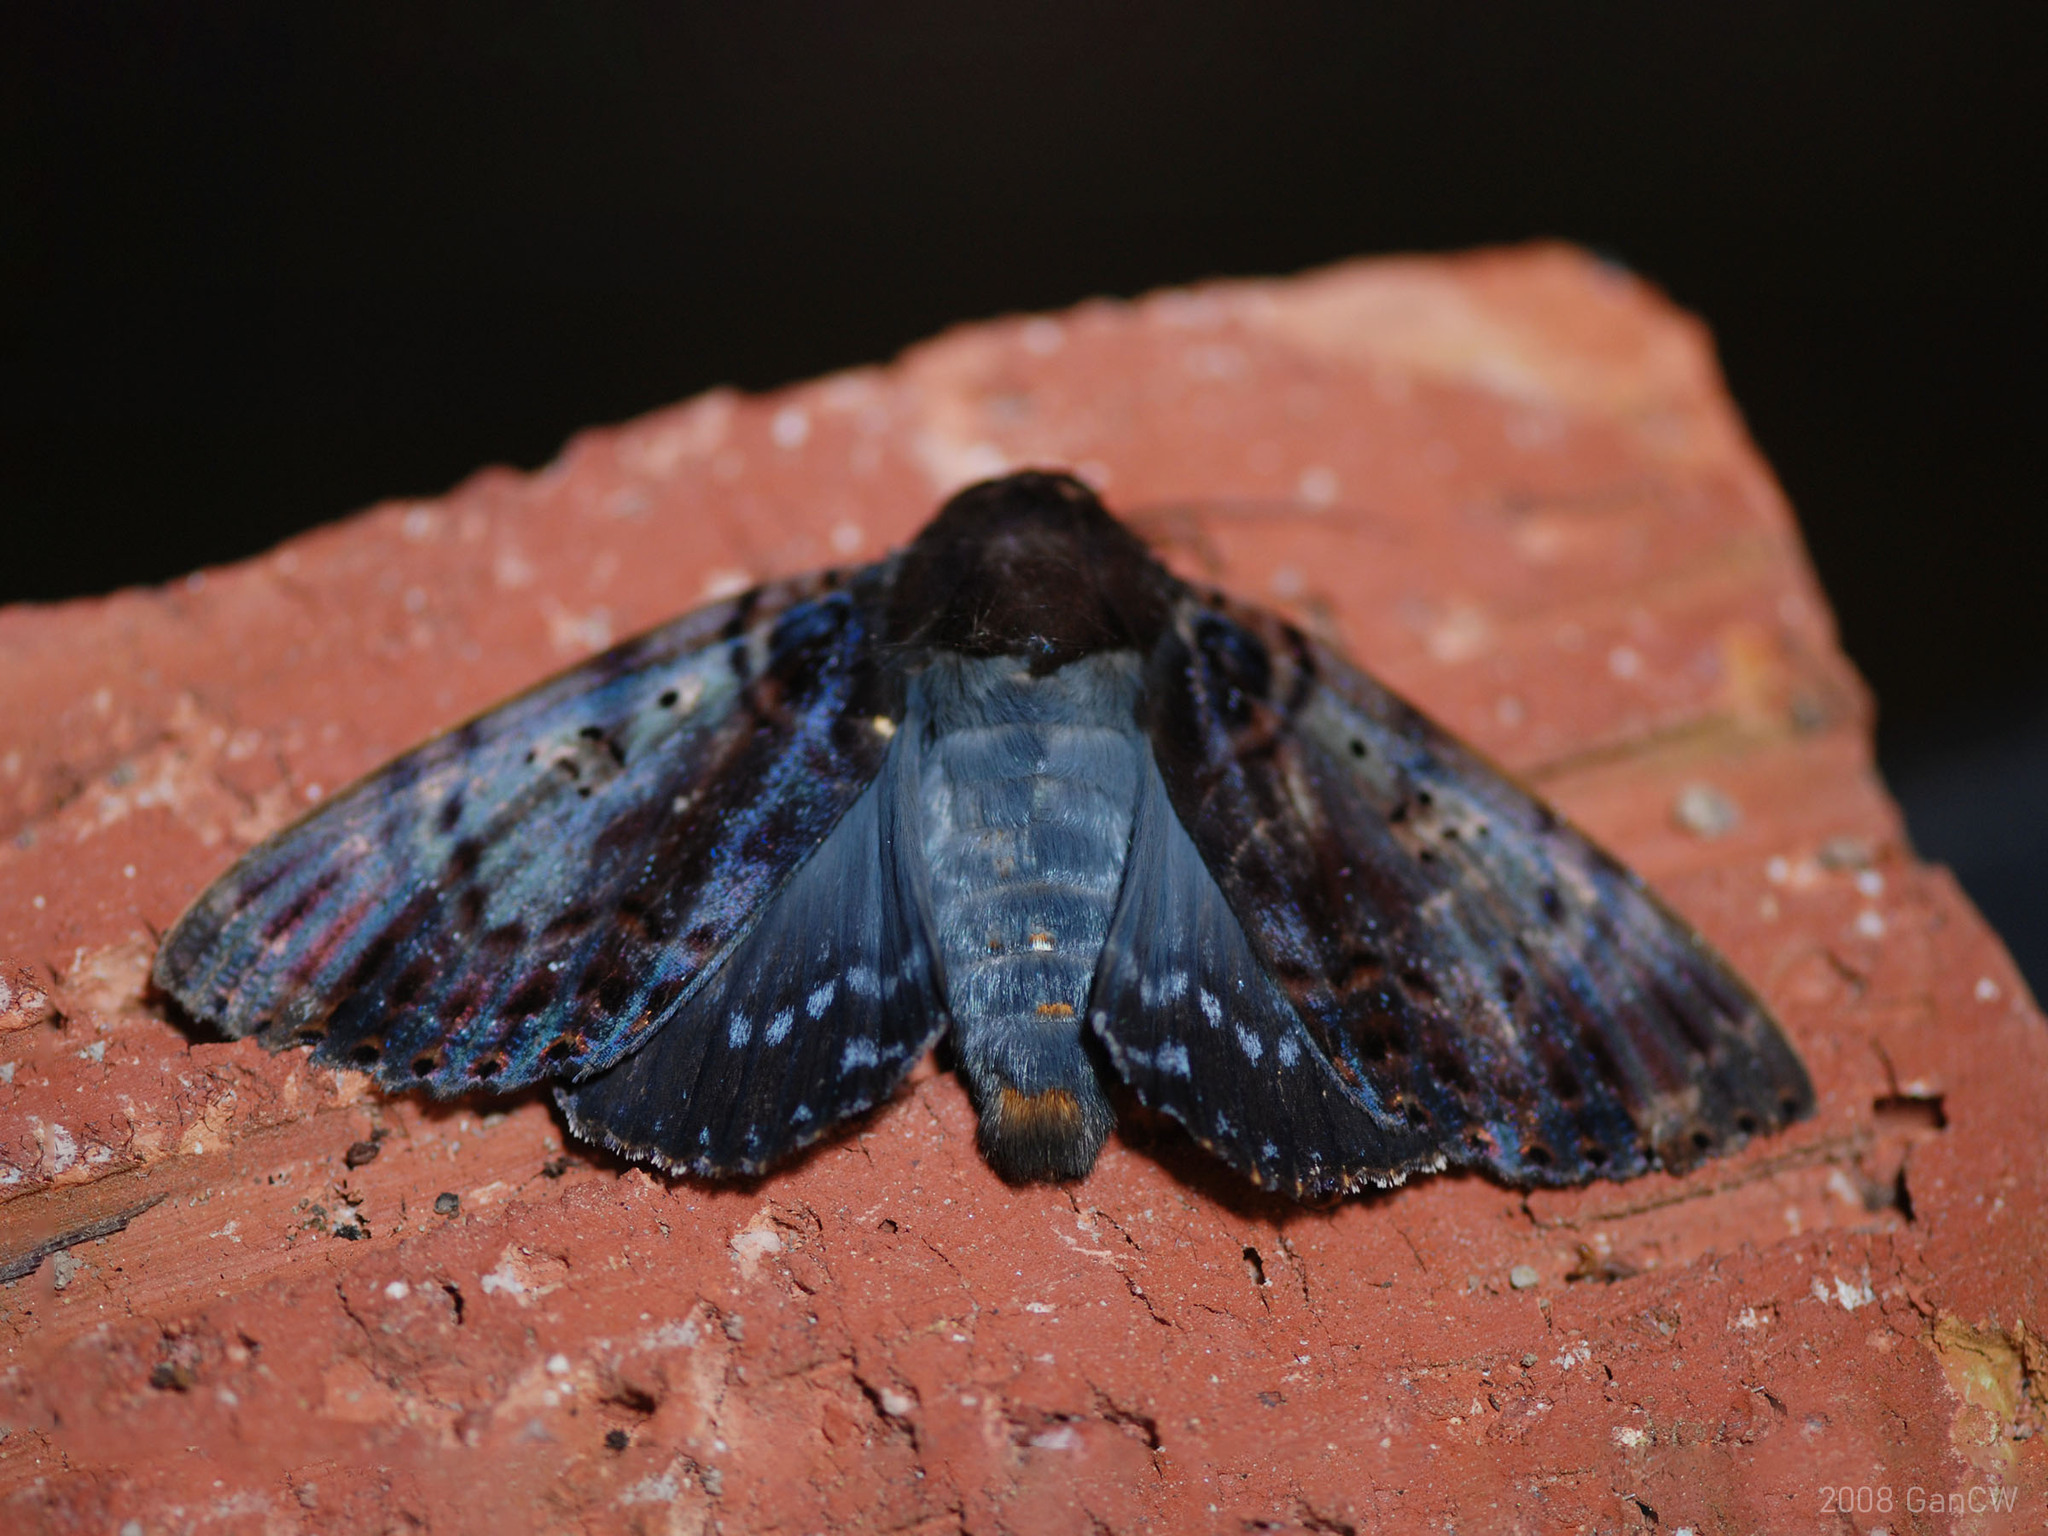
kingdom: Animalia
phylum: Arthropoda
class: Insecta
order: Lepidoptera
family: Erebidae
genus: Arcte
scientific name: Arcte modesta
